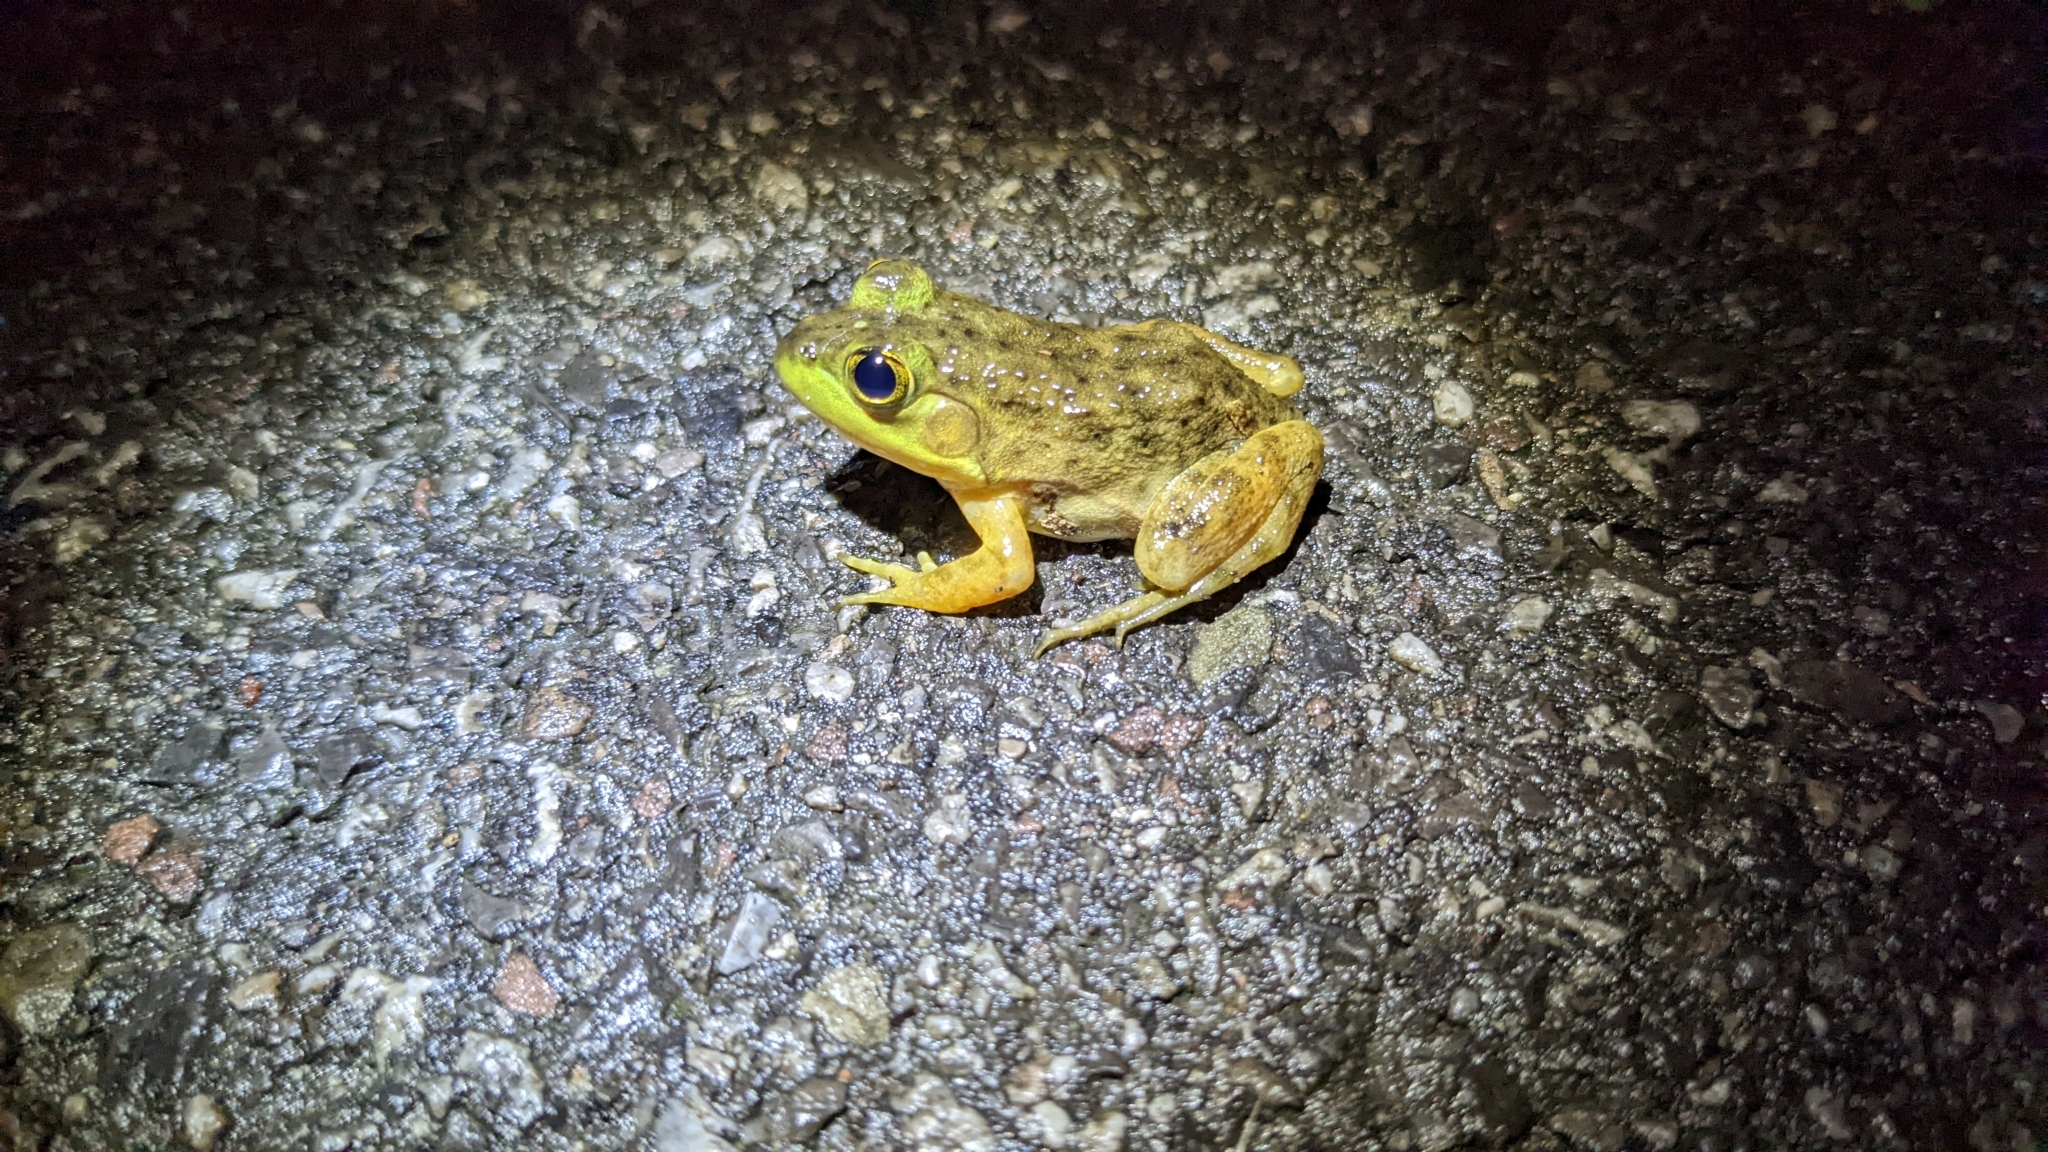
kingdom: Animalia
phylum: Chordata
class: Amphibia
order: Anura
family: Ranidae
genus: Lithobates
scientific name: Lithobates catesbeianus
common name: American bullfrog
